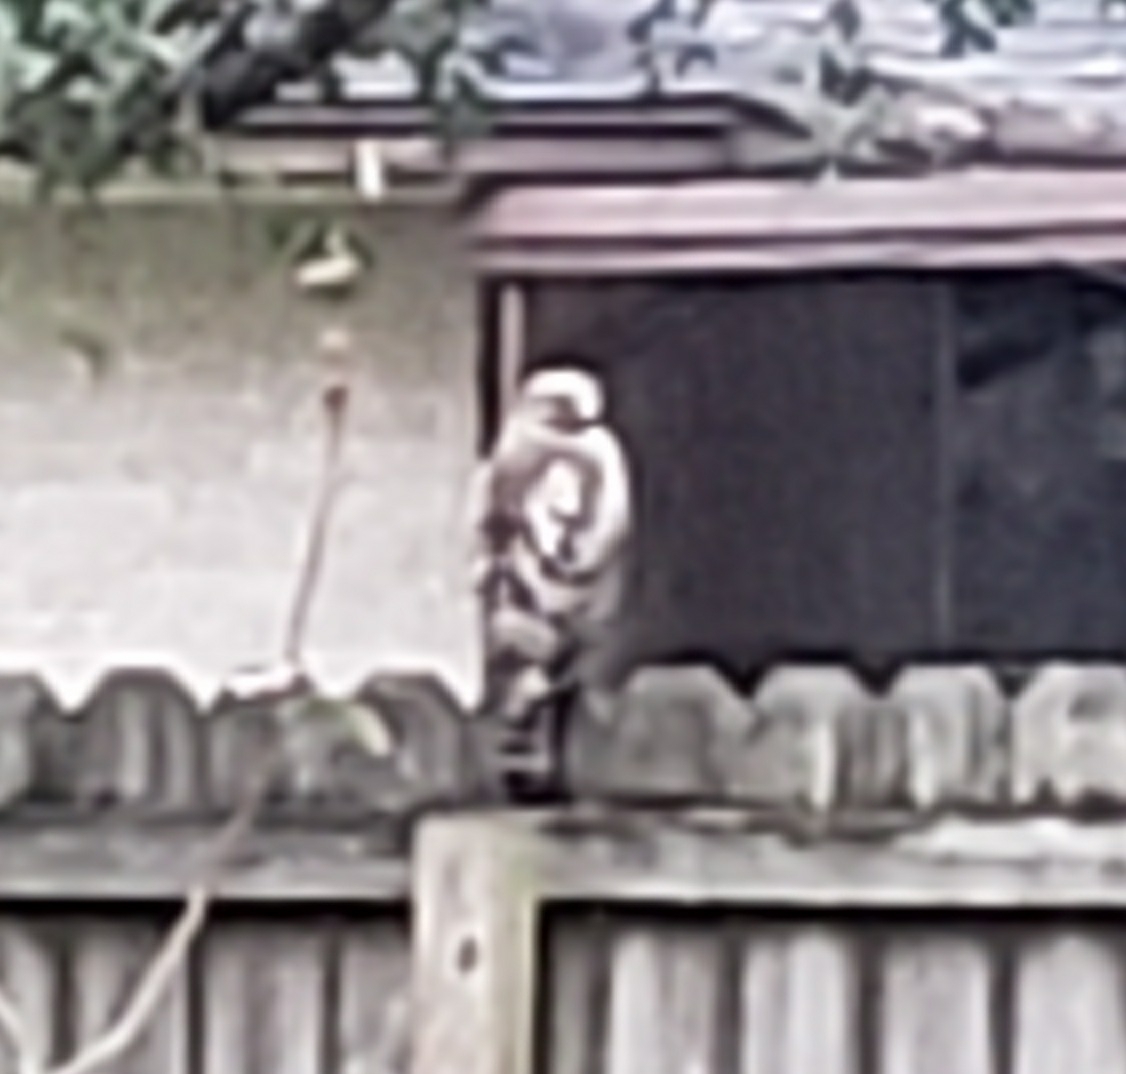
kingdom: Animalia
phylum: Chordata
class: Aves
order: Accipitriformes
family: Accipitridae
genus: Buteo
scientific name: Buteo lineatus
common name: Red-shouldered hawk
